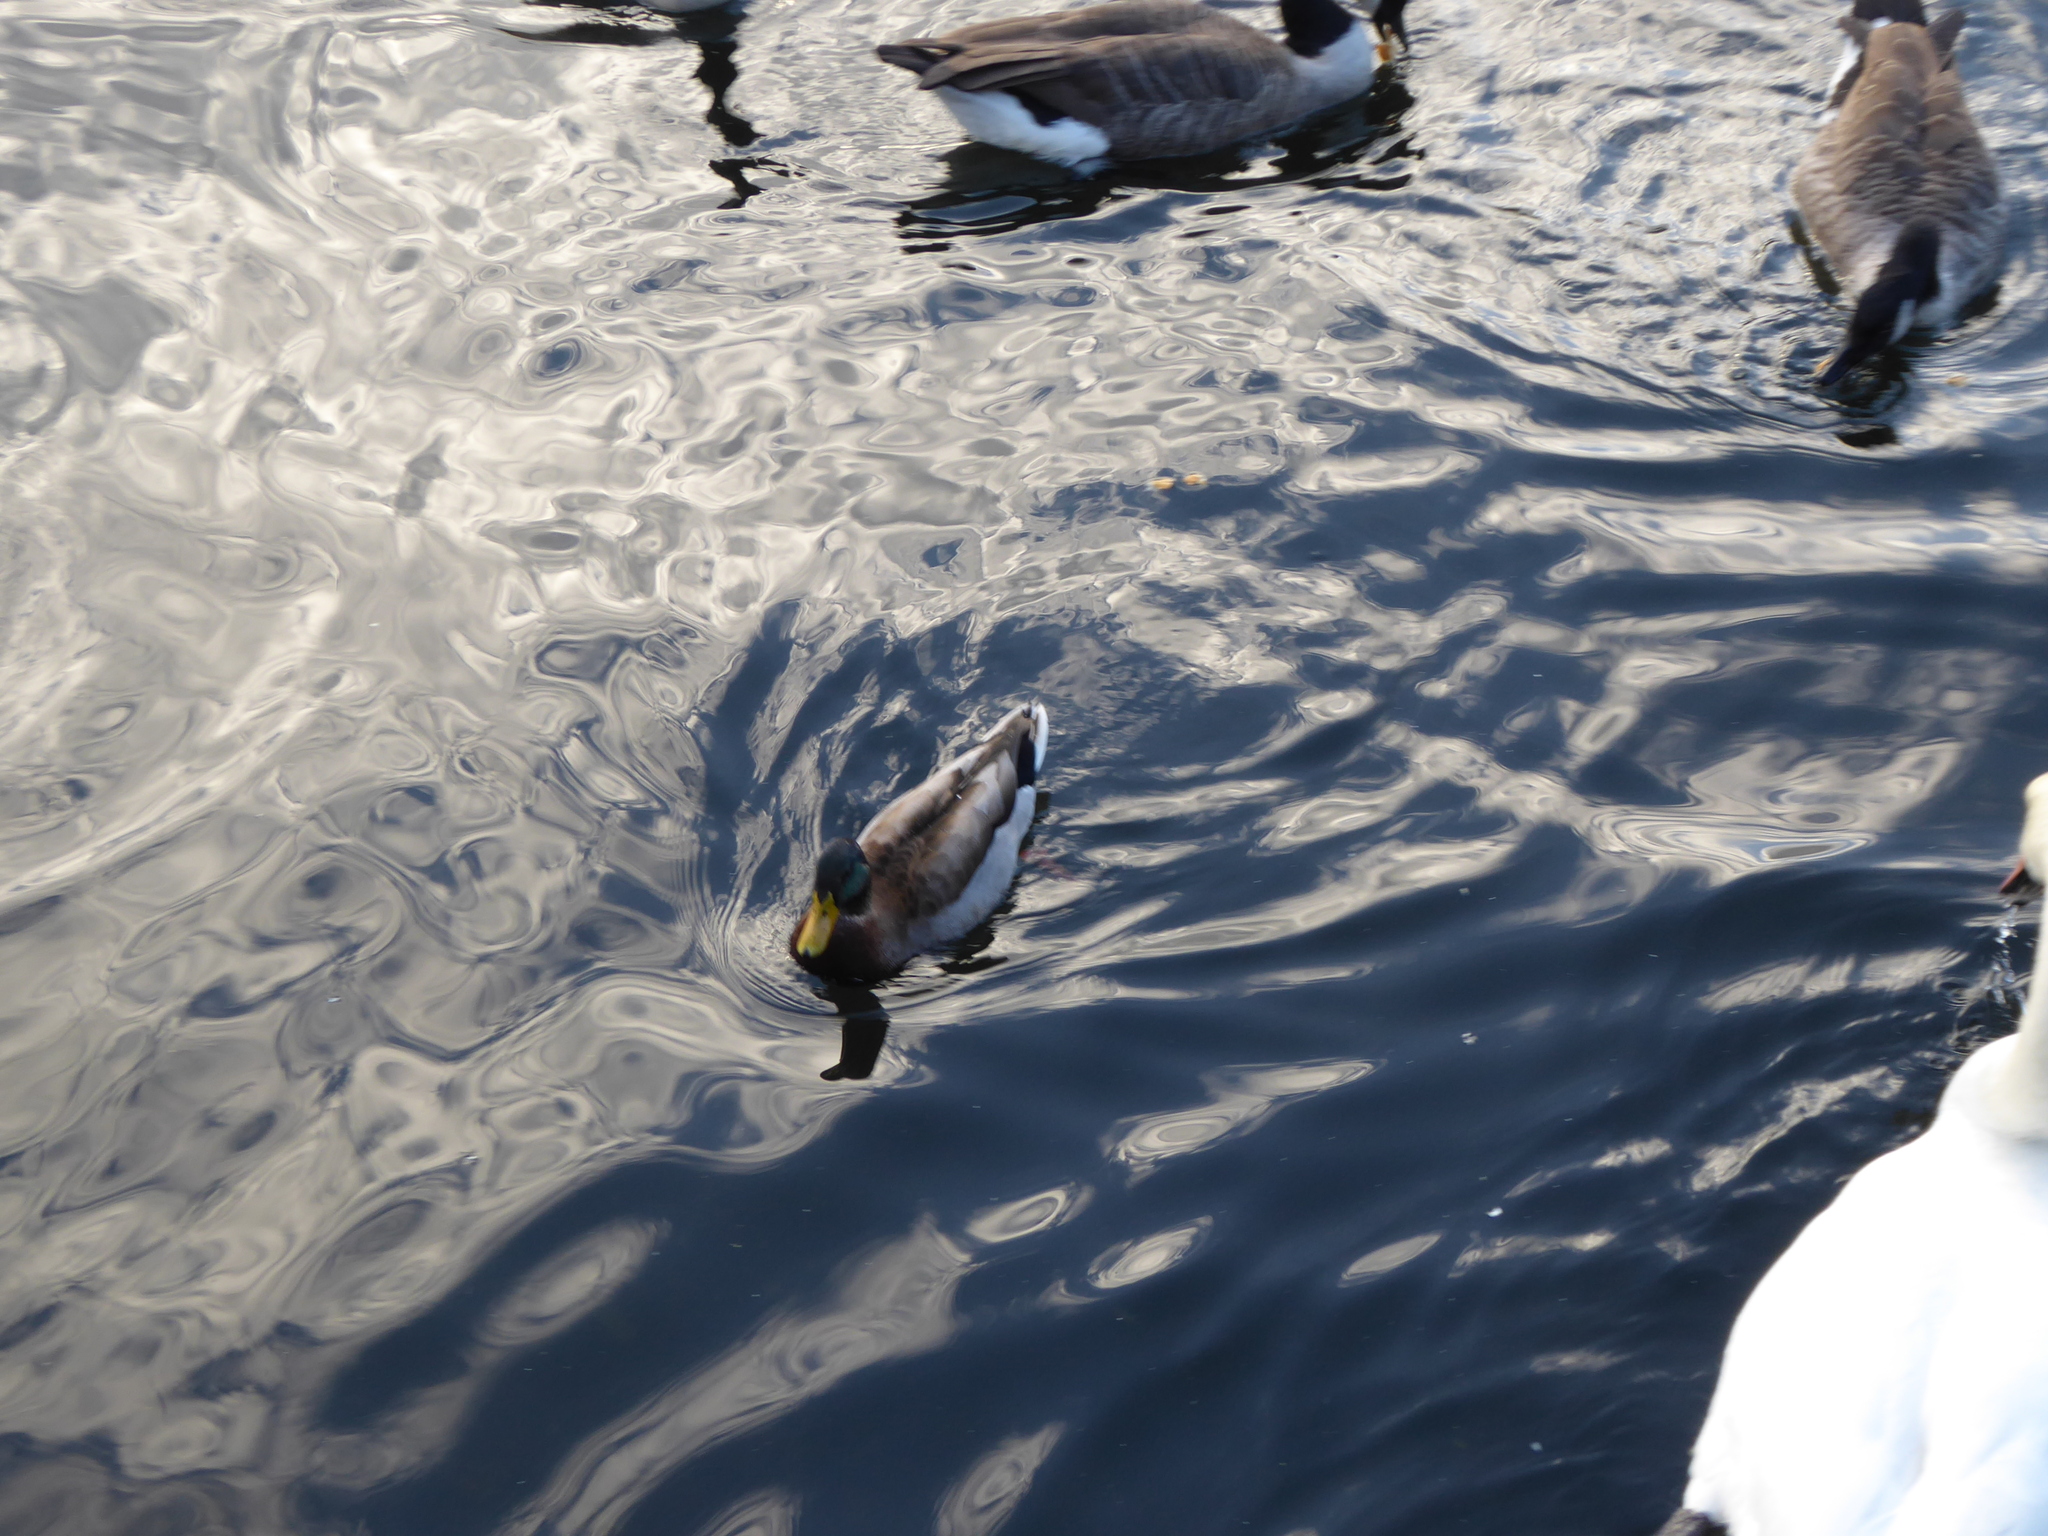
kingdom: Animalia
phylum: Chordata
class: Aves
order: Anseriformes
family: Anatidae
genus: Anas
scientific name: Anas platyrhynchos
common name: Mallard
